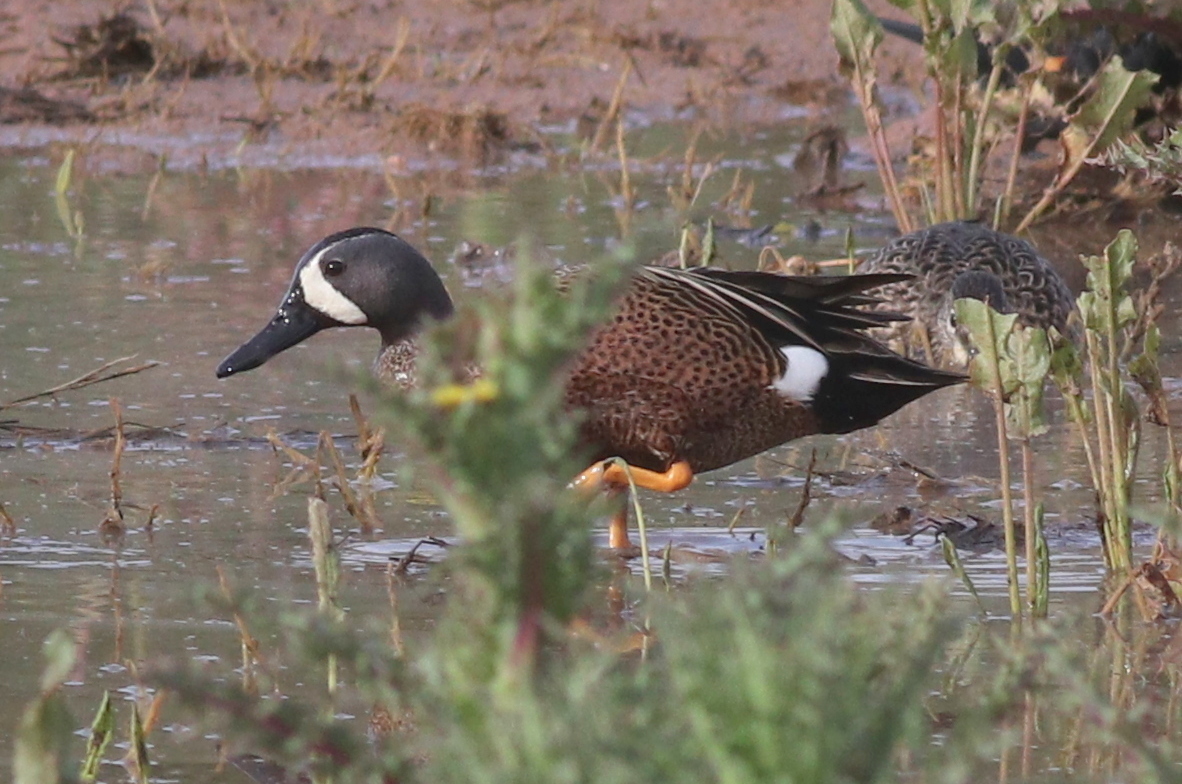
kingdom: Animalia
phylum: Chordata
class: Aves
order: Anseriformes
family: Anatidae
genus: Spatula
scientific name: Spatula discors
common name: Blue-winged teal
